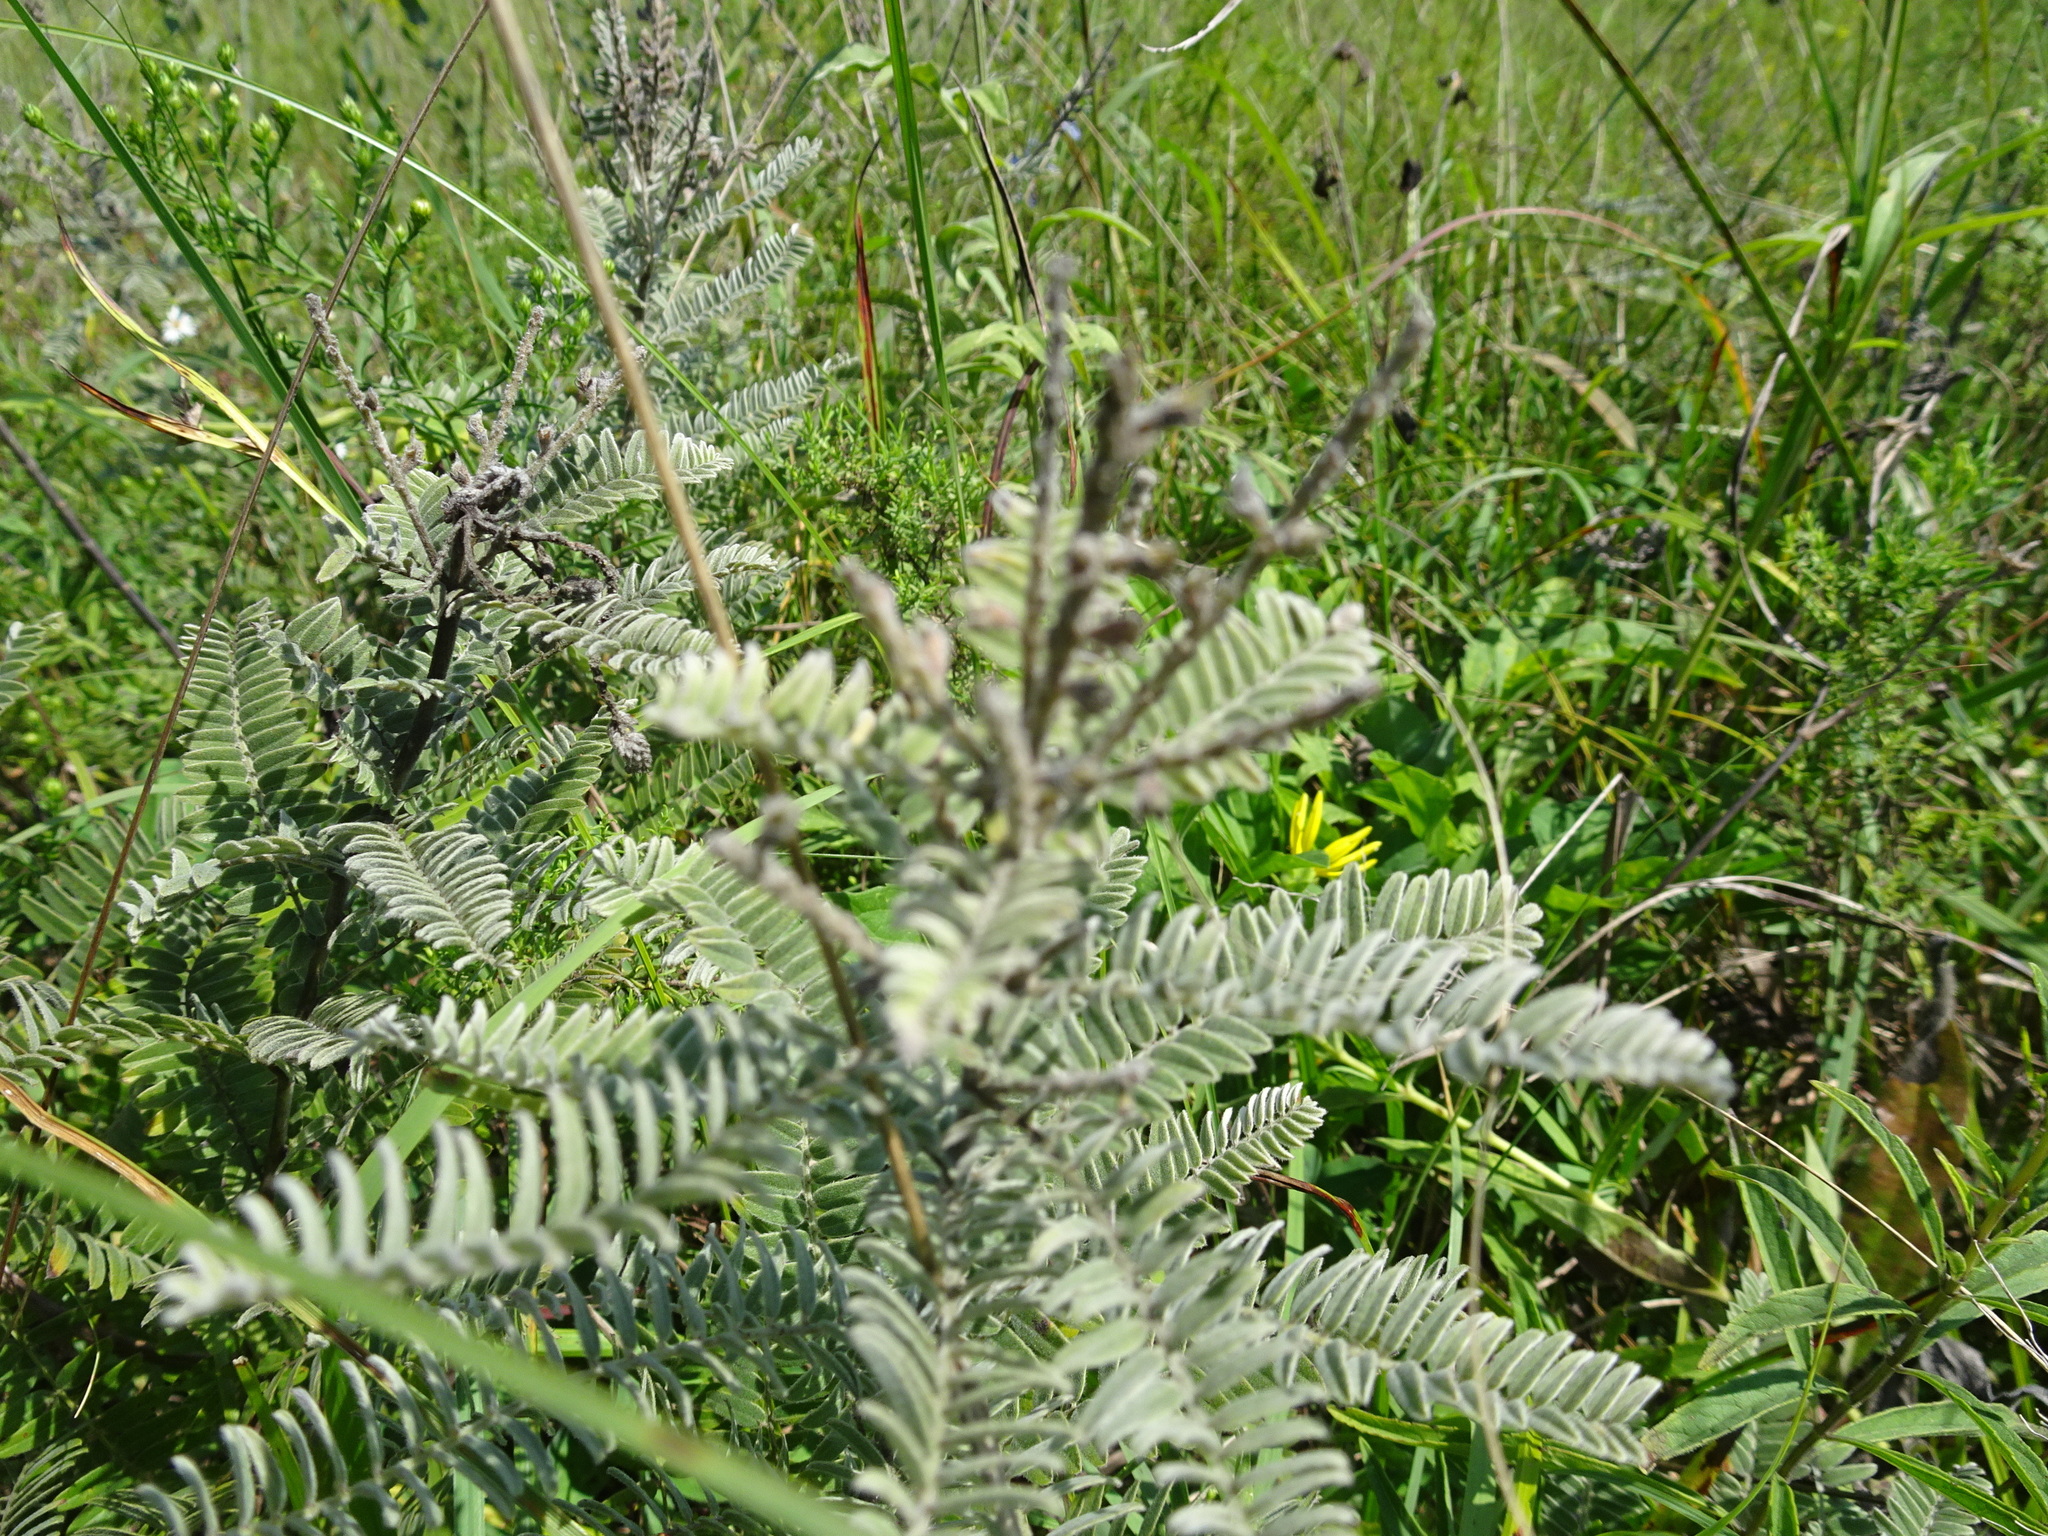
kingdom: Plantae
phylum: Tracheophyta
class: Magnoliopsida
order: Fabales
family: Fabaceae
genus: Amorpha
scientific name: Amorpha canescens
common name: Leadplant
